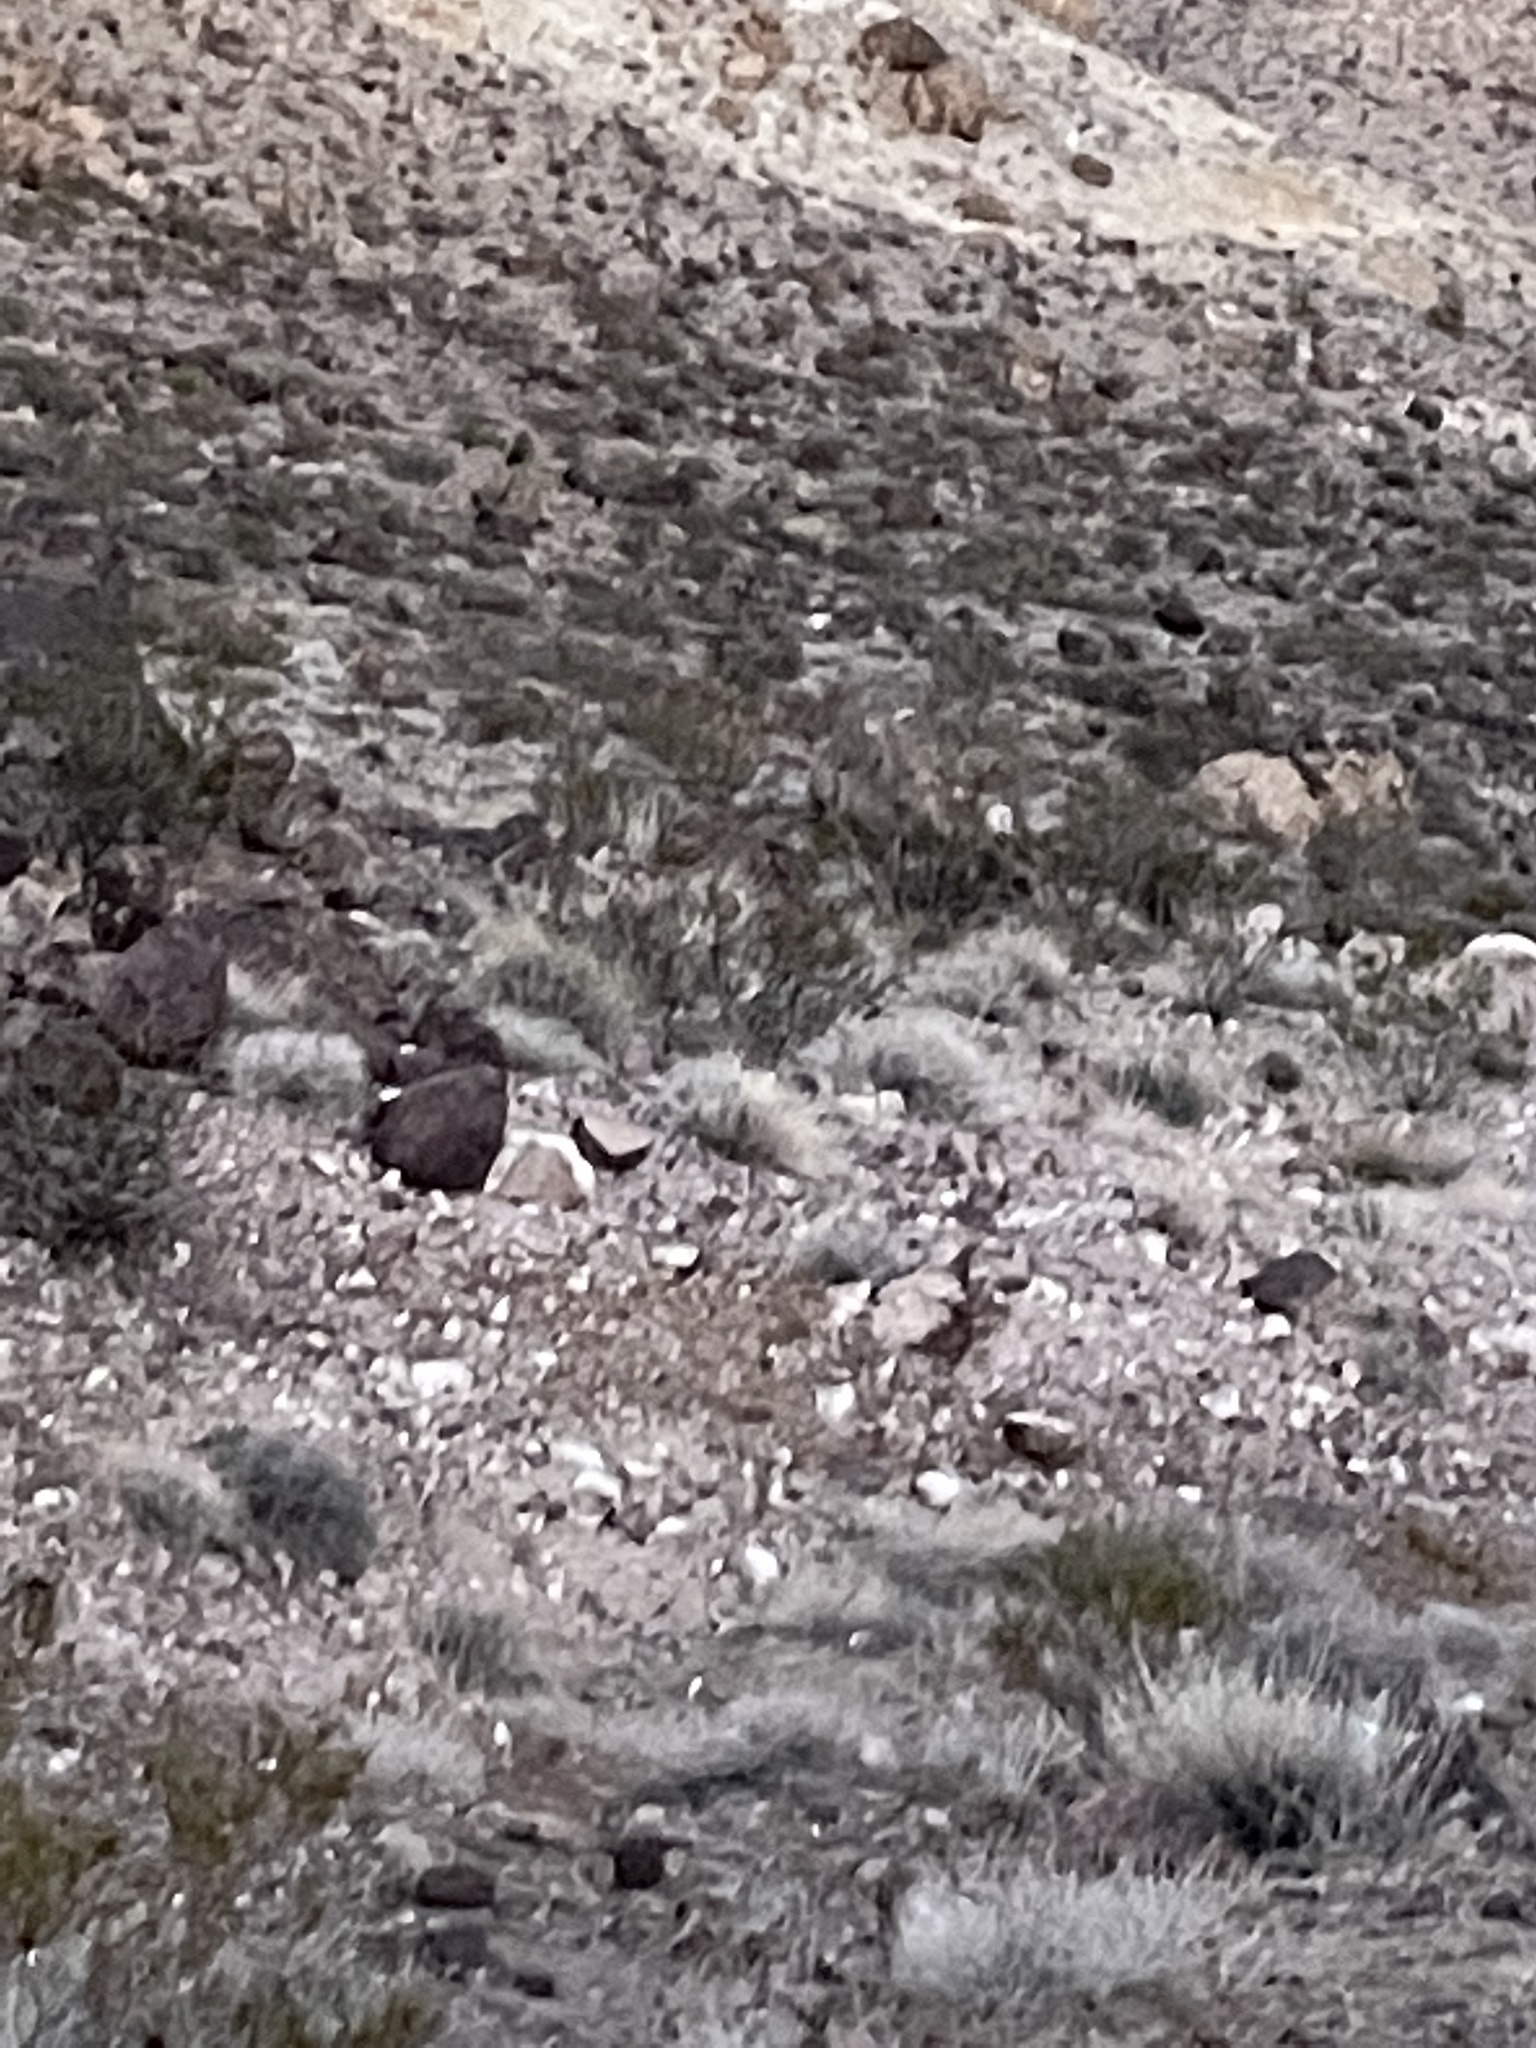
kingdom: Animalia
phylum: Chordata
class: Mammalia
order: Artiodactyla
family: Bovidae
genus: Ovis
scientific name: Ovis canadensis
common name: Bighorn sheep
